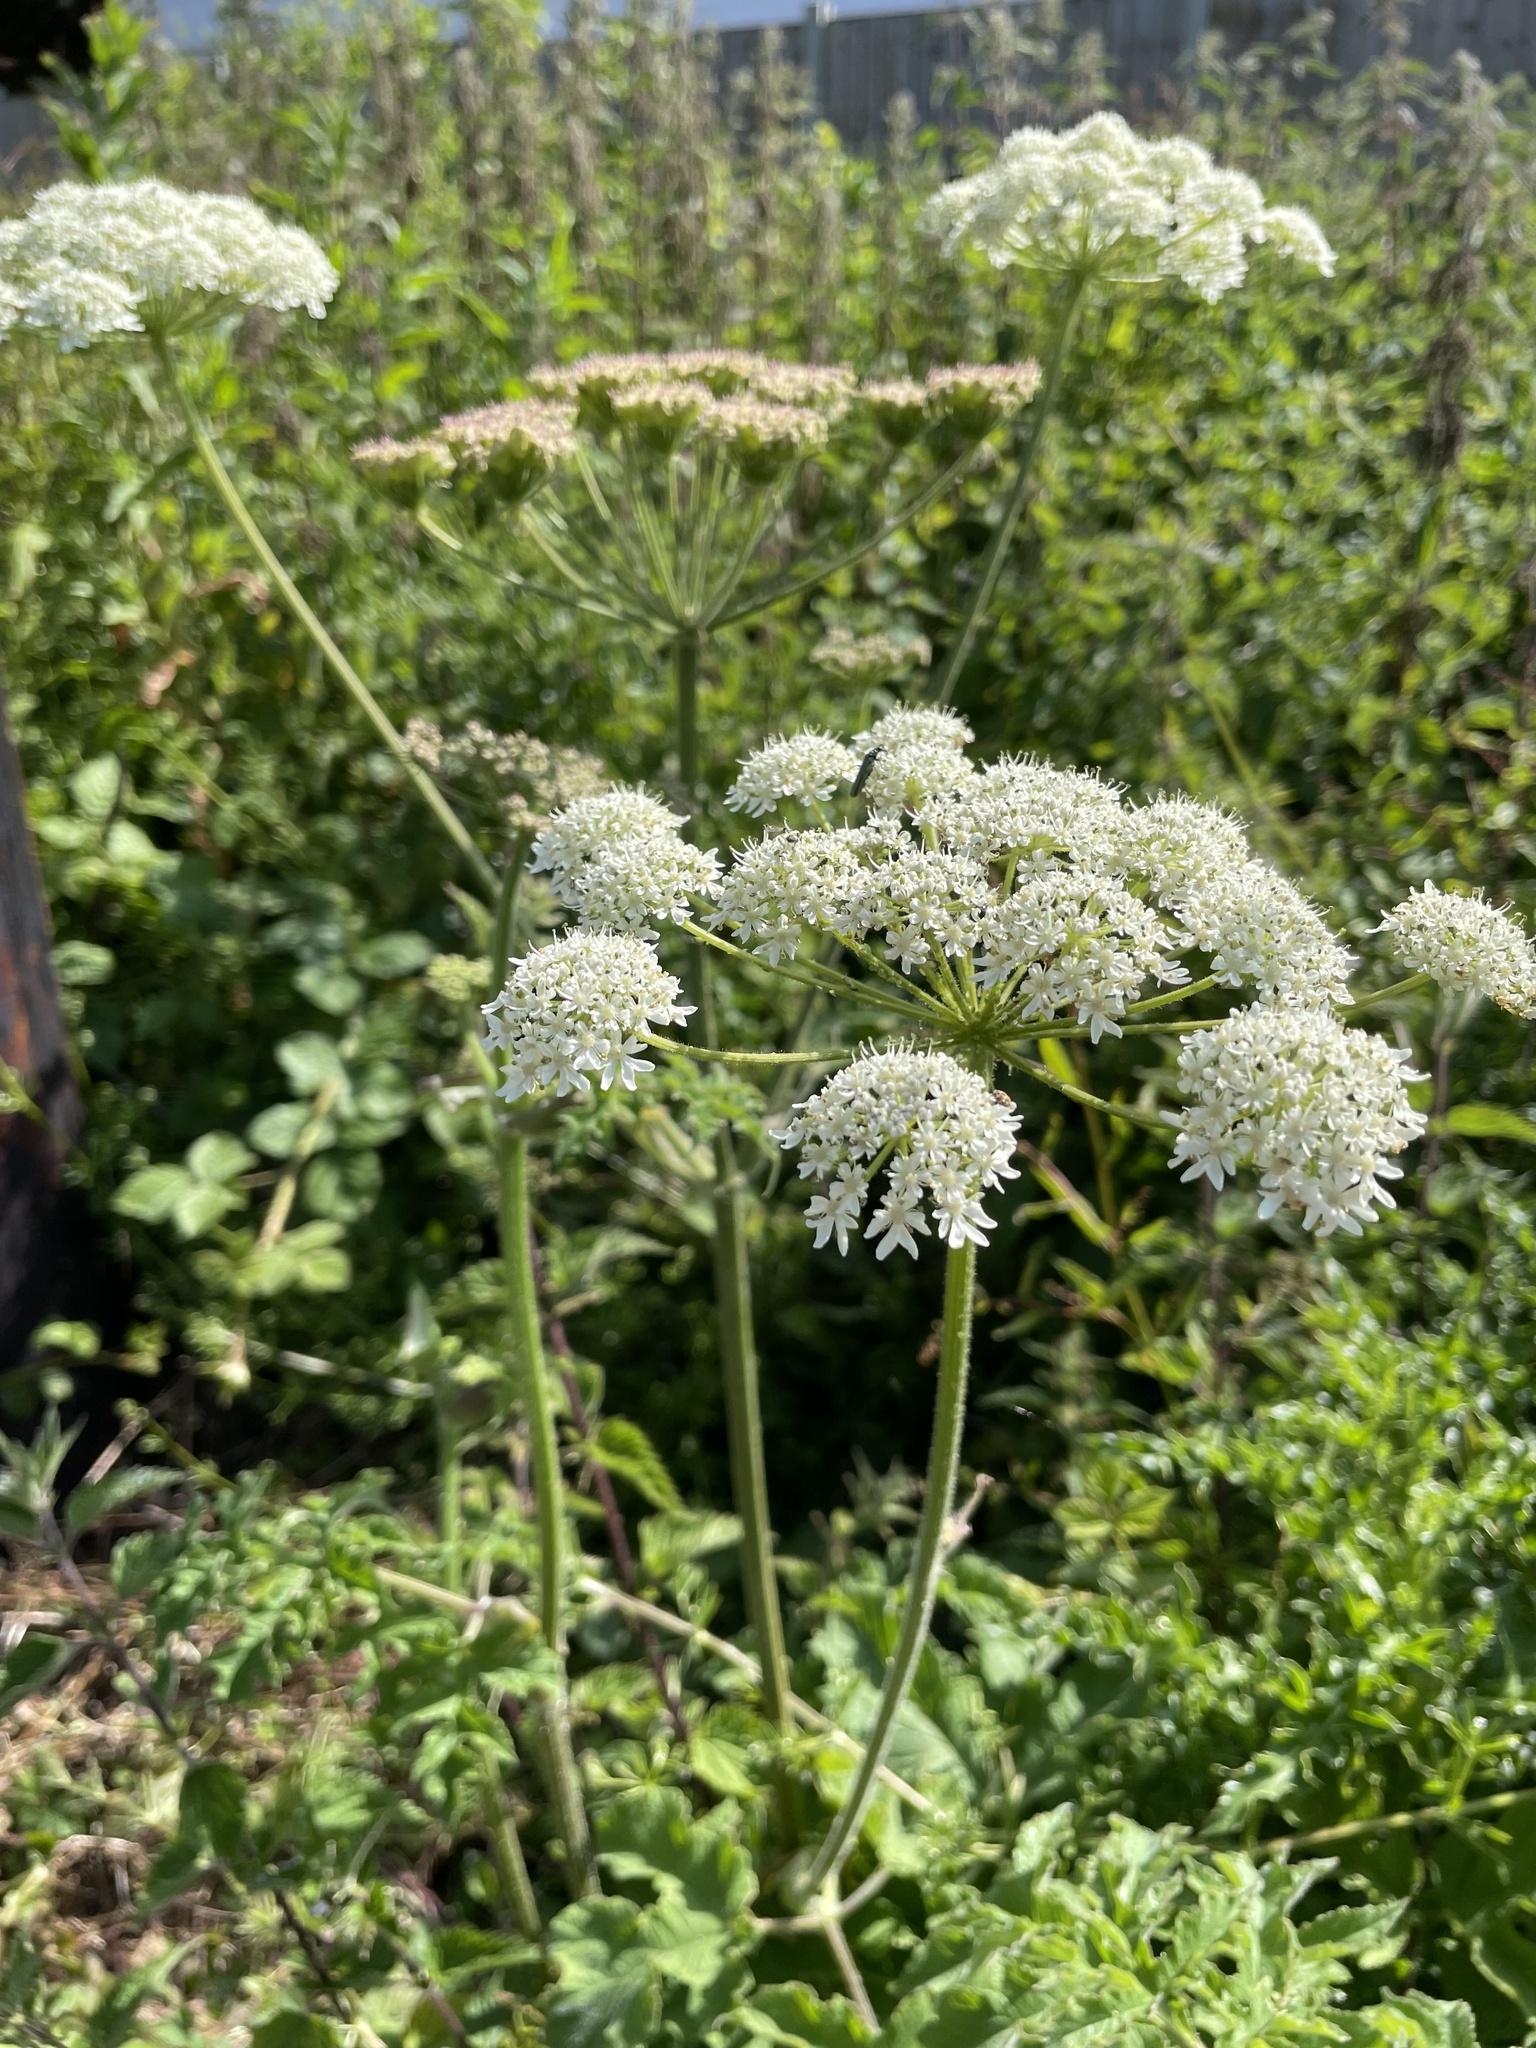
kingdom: Plantae
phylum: Tracheophyta
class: Magnoliopsida
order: Apiales
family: Apiaceae
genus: Heracleum
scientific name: Heracleum sphondylium
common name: Hogweed
